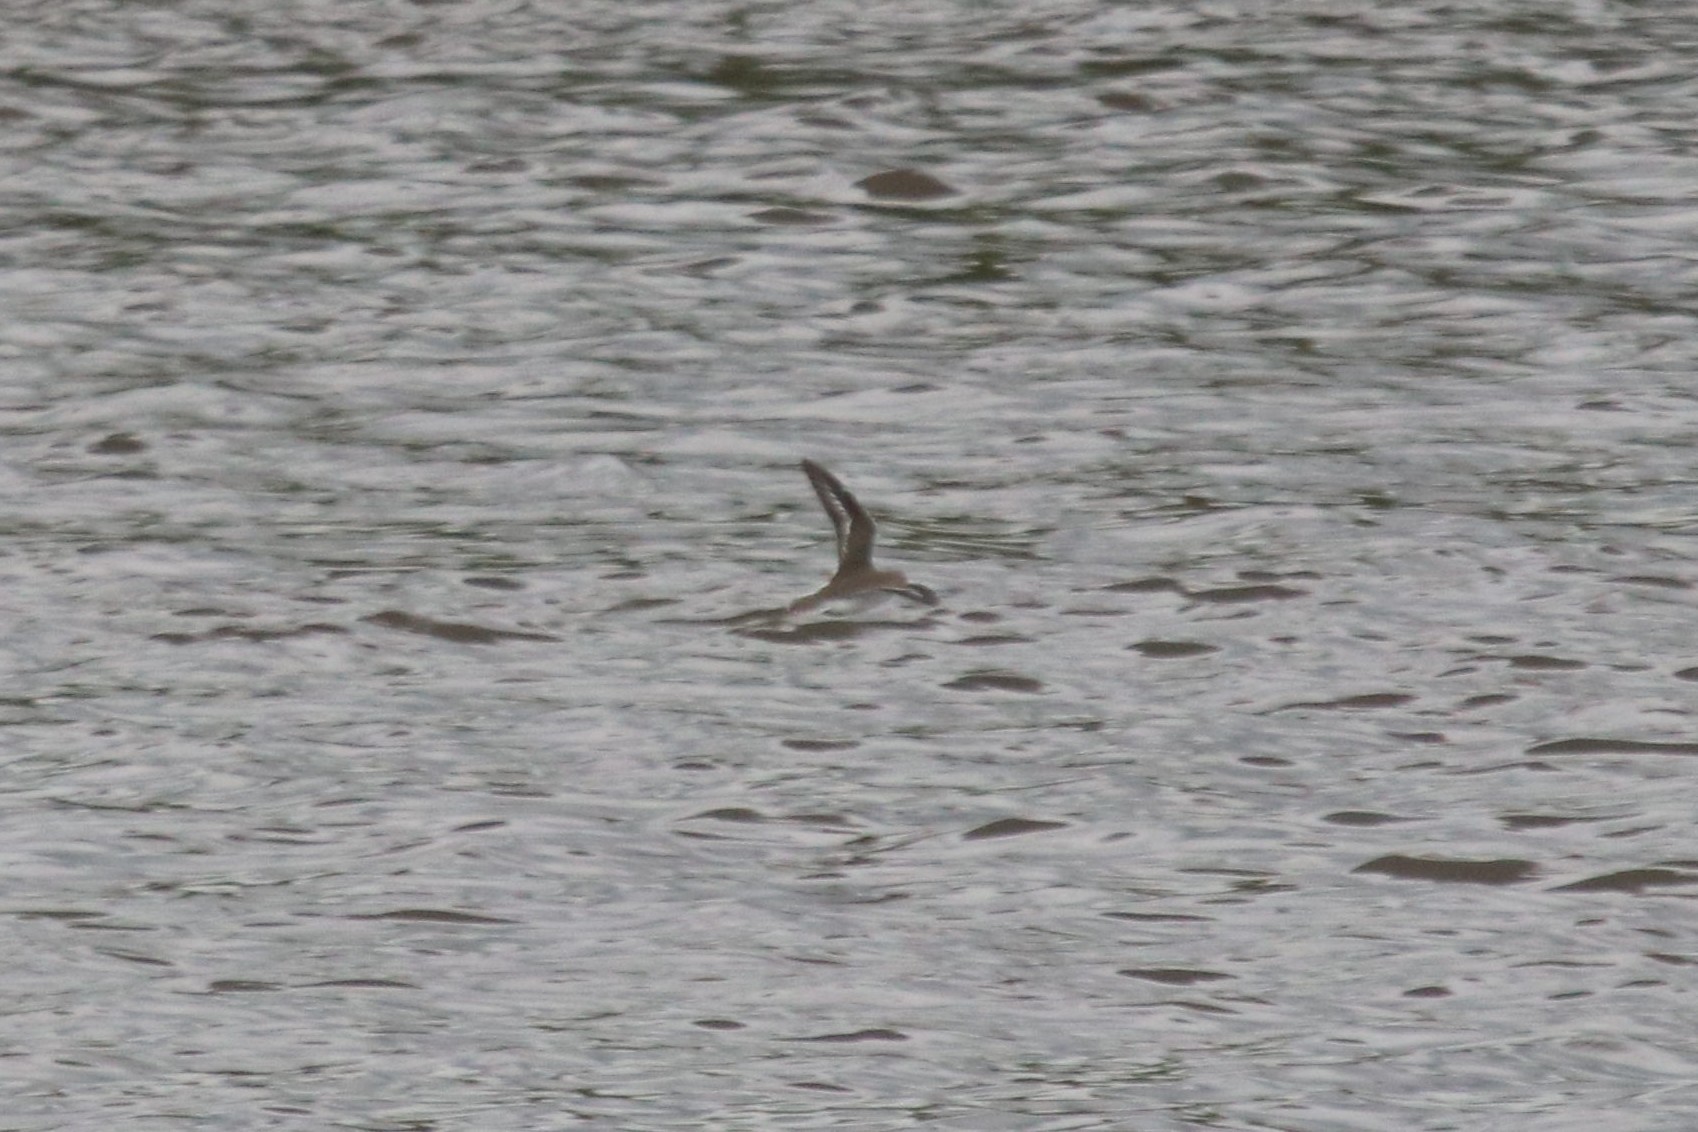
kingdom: Animalia
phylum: Chordata
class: Aves
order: Charadriiformes
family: Scolopacidae
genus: Actitis
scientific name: Actitis hypoleucos
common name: Common sandpiper
